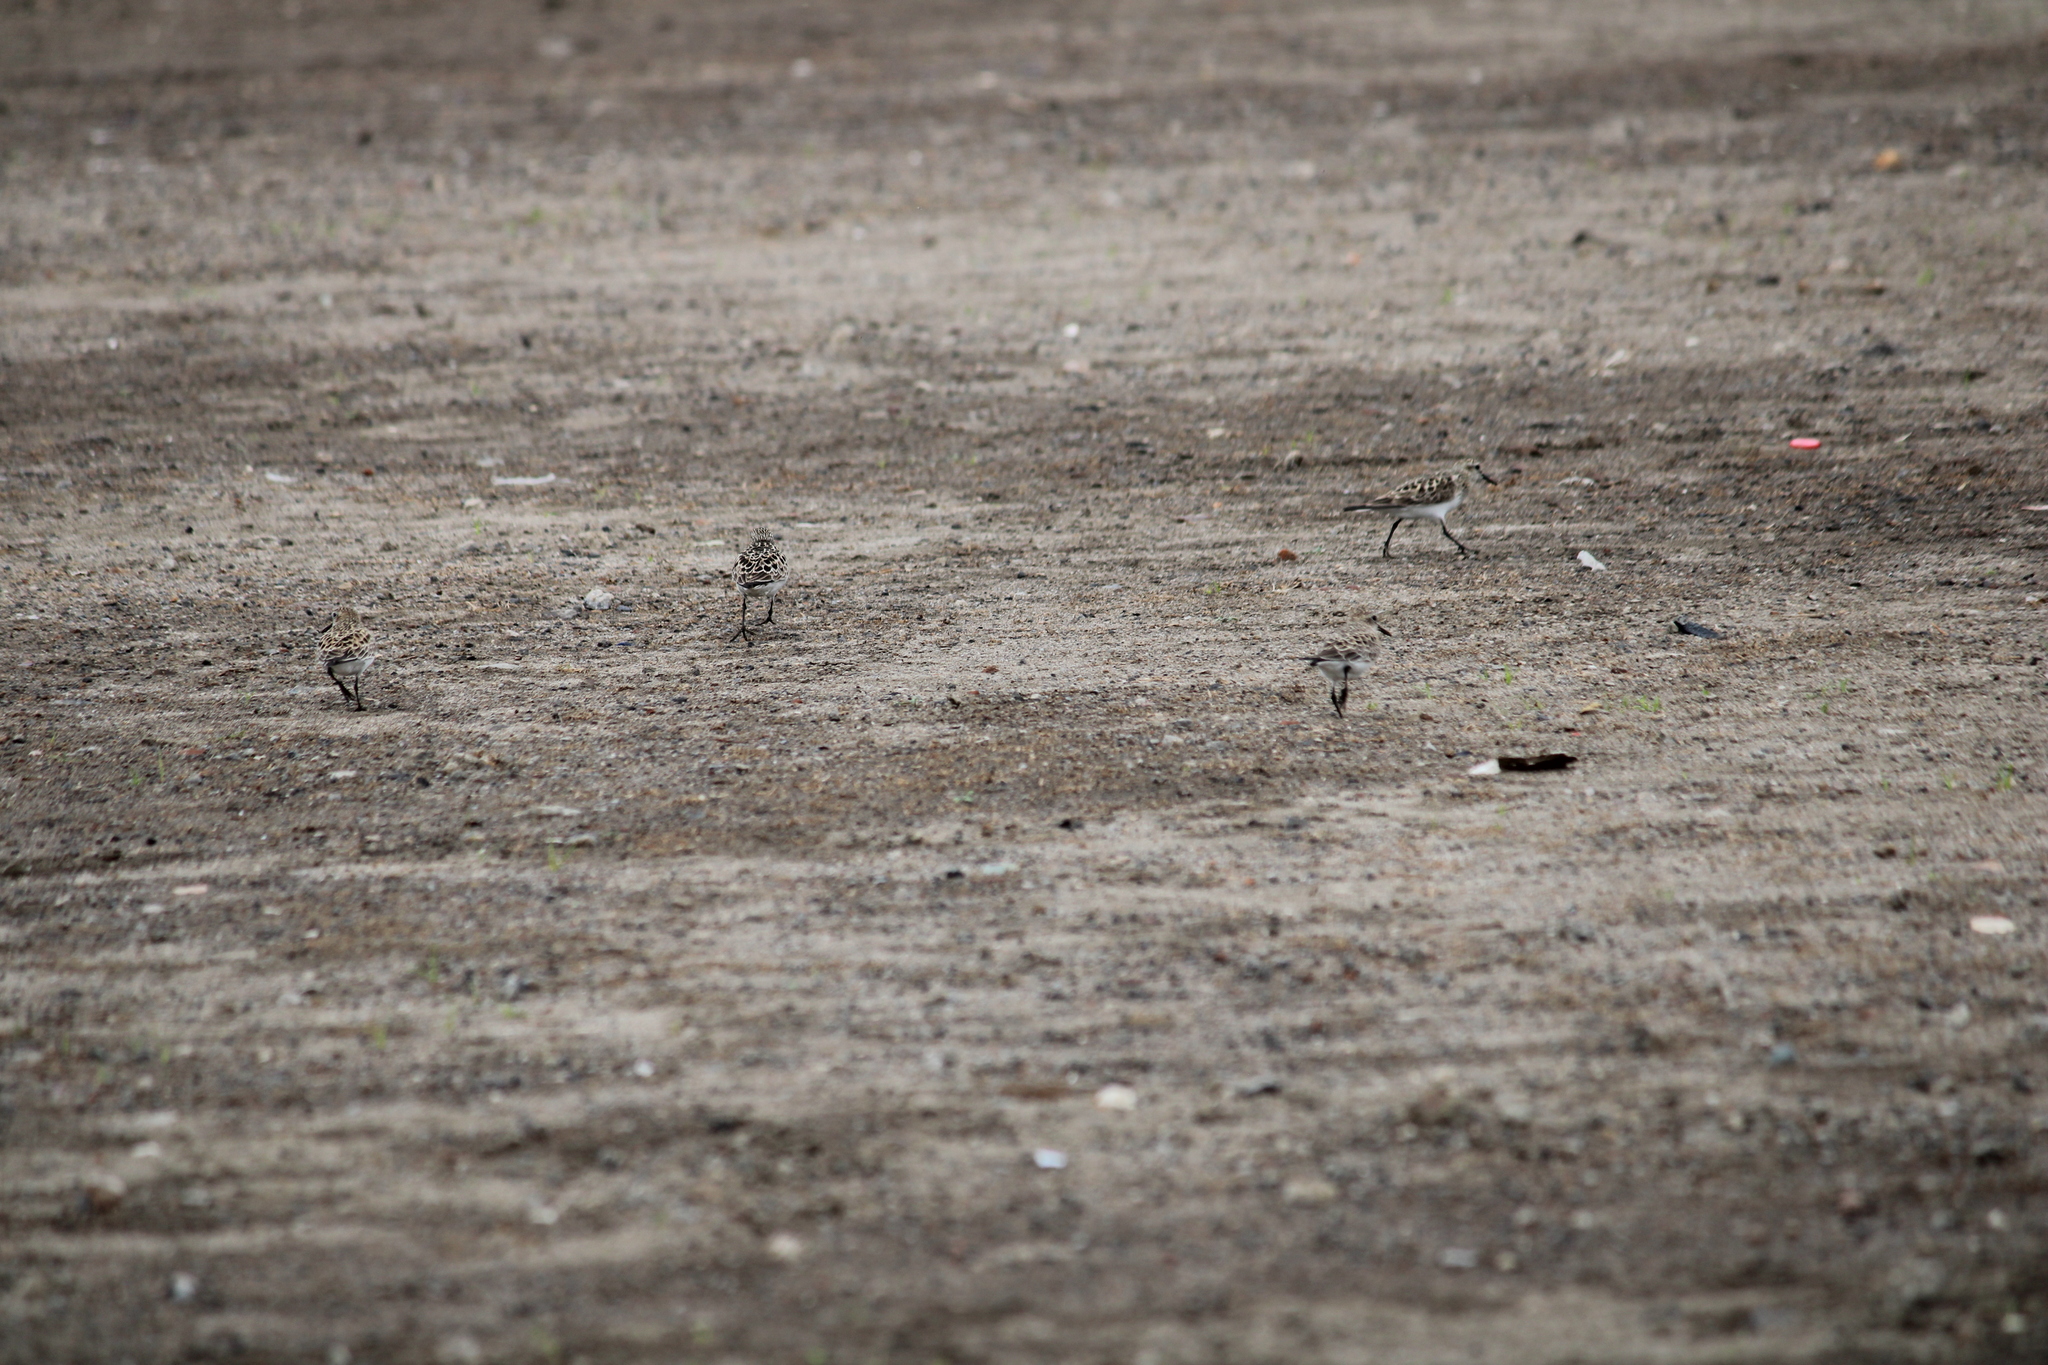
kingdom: Animalia
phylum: Chordata
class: Aves
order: Charadriiformes
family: Scolopacidae
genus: Calidris
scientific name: Calidris pusilla
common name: Semipalmated sandpiper
